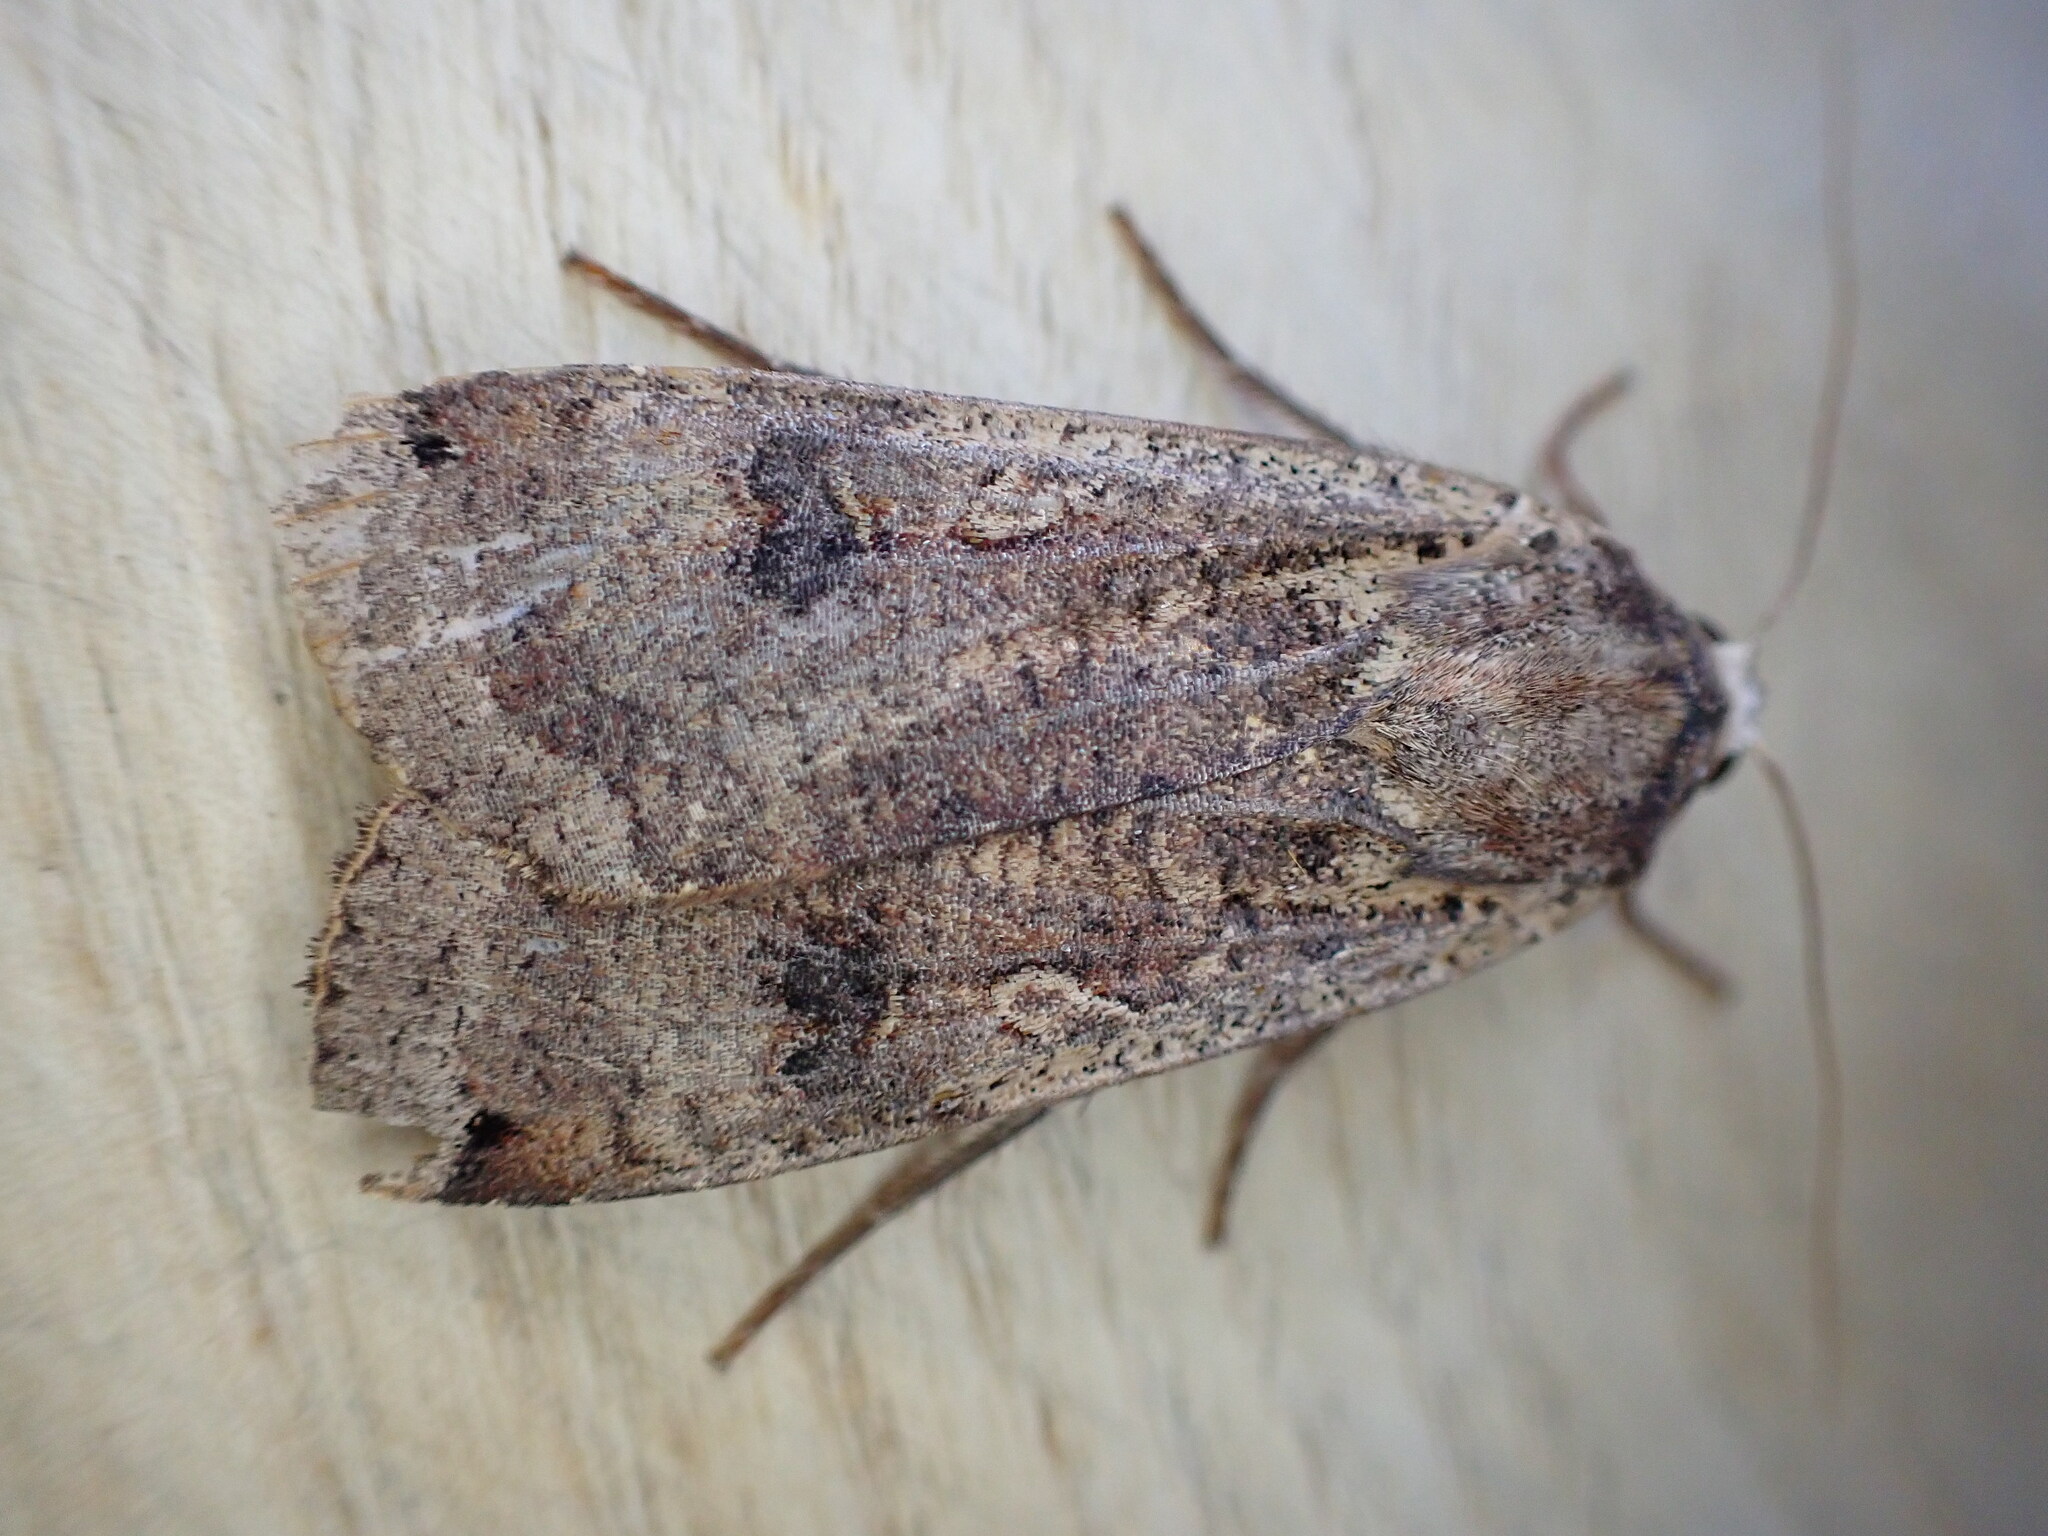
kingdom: Animalia
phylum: Arthropoda
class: Insecta
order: Lepidoptera
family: Noctuidae
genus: Noctua
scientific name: Noctua pronuba
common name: Large yellow underwing
